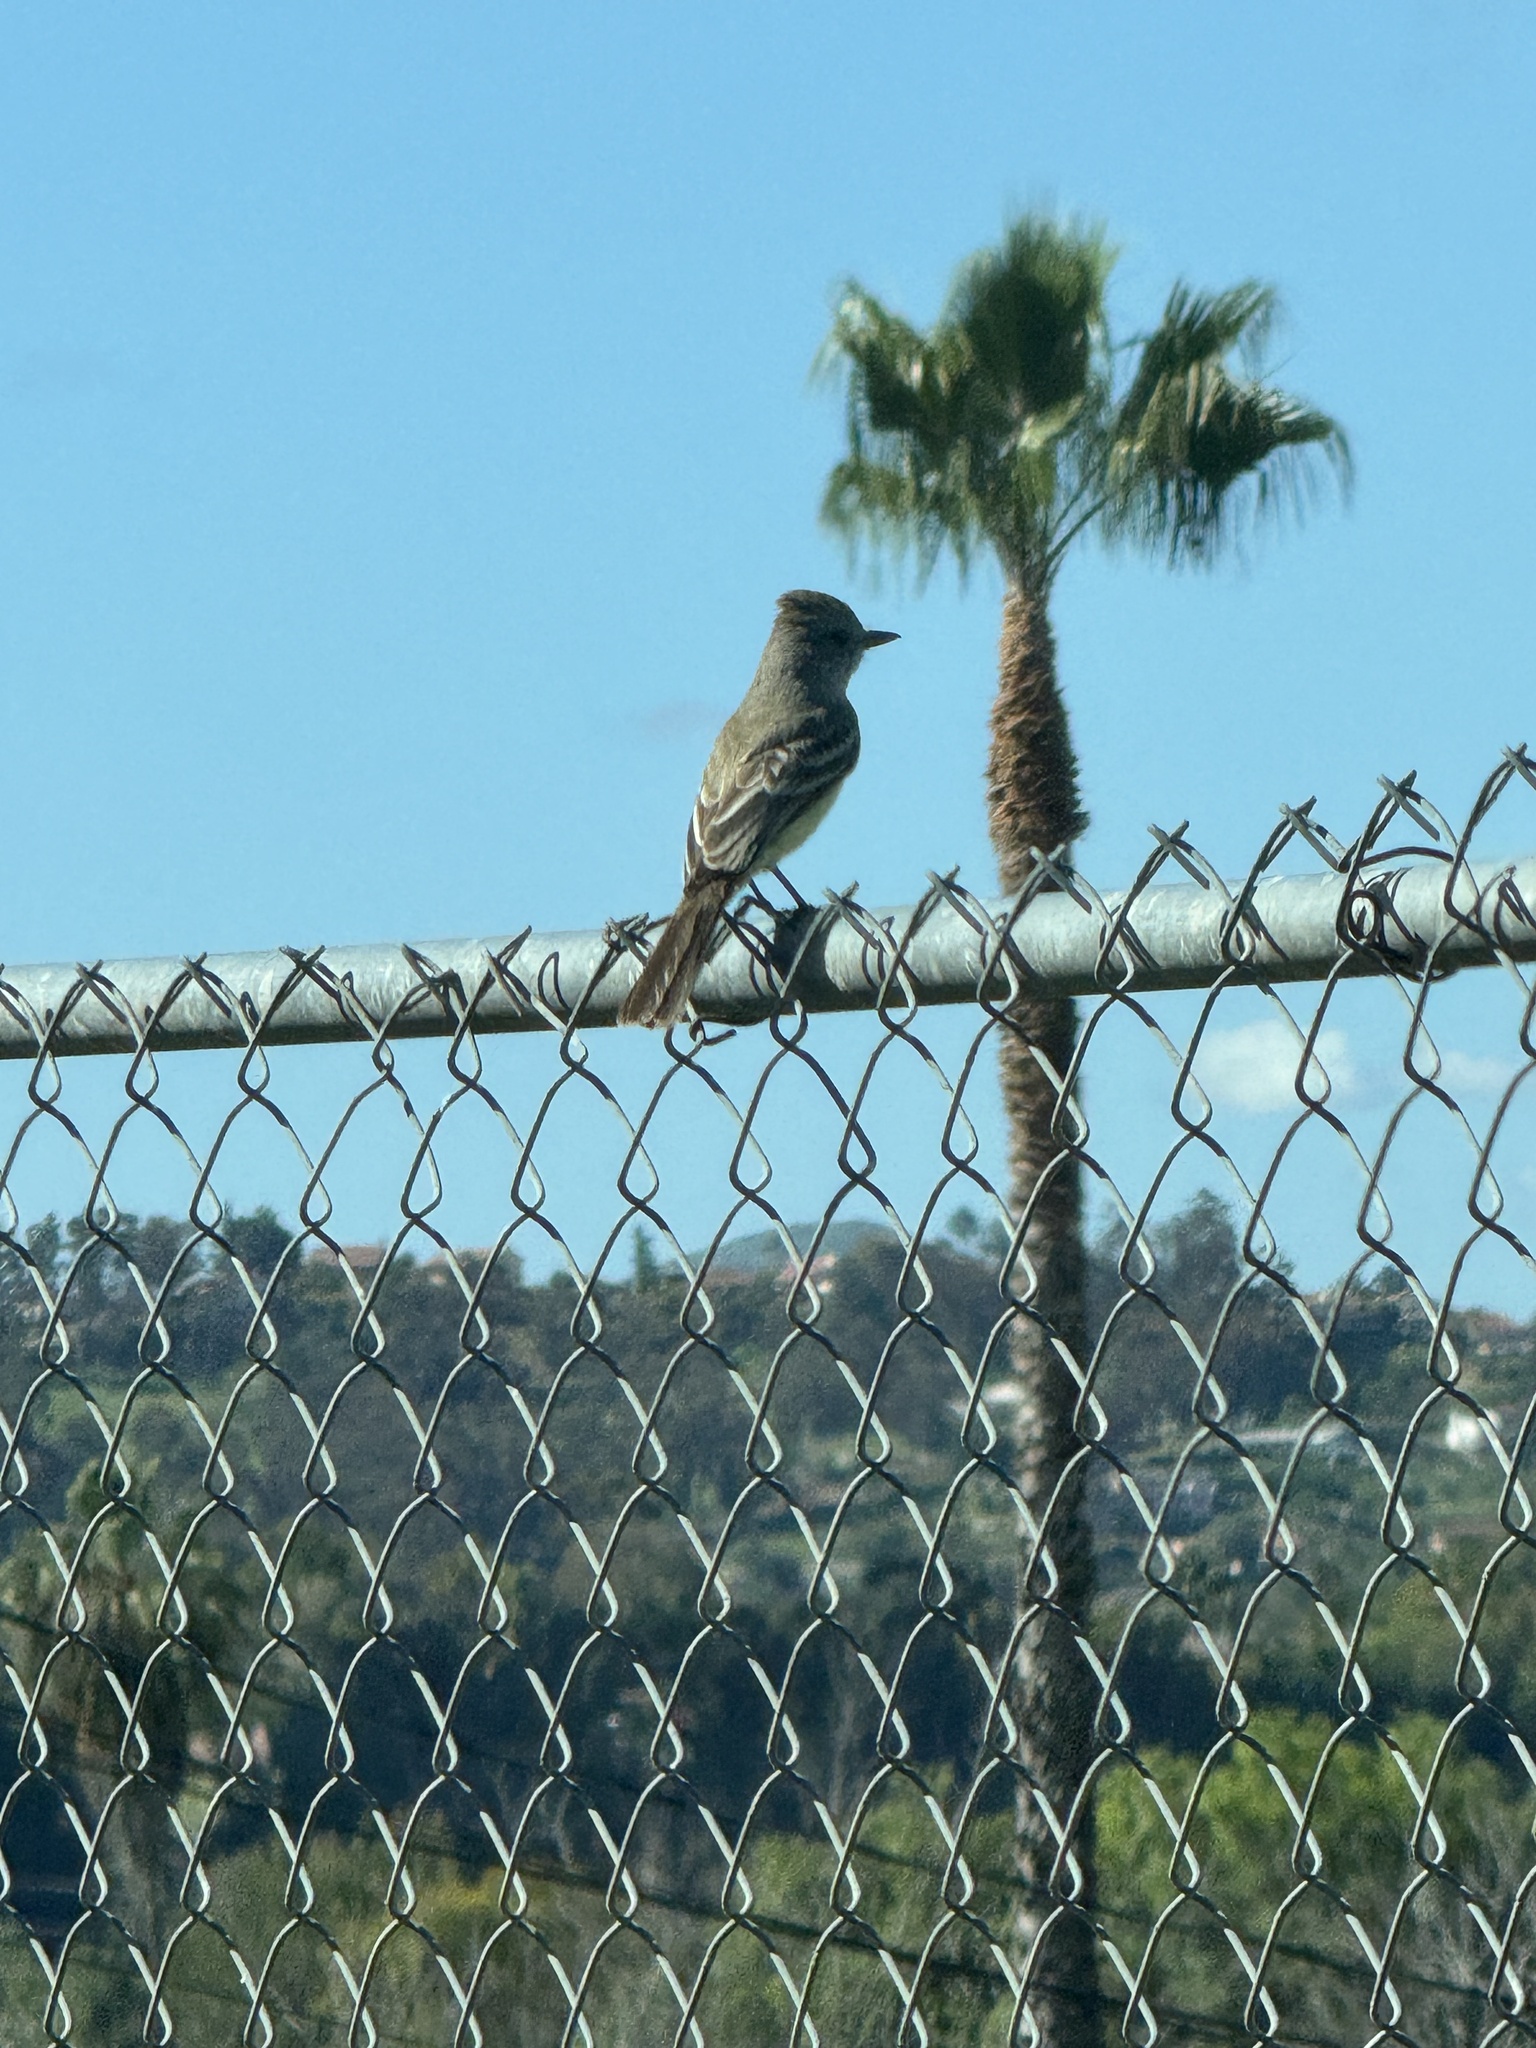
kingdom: Animalia
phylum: Chordata
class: Aves
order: Passeriformes
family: Tyrannidae
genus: Myiarchus
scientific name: Myiarchus cinerascens
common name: Ash-throated flycatcher
